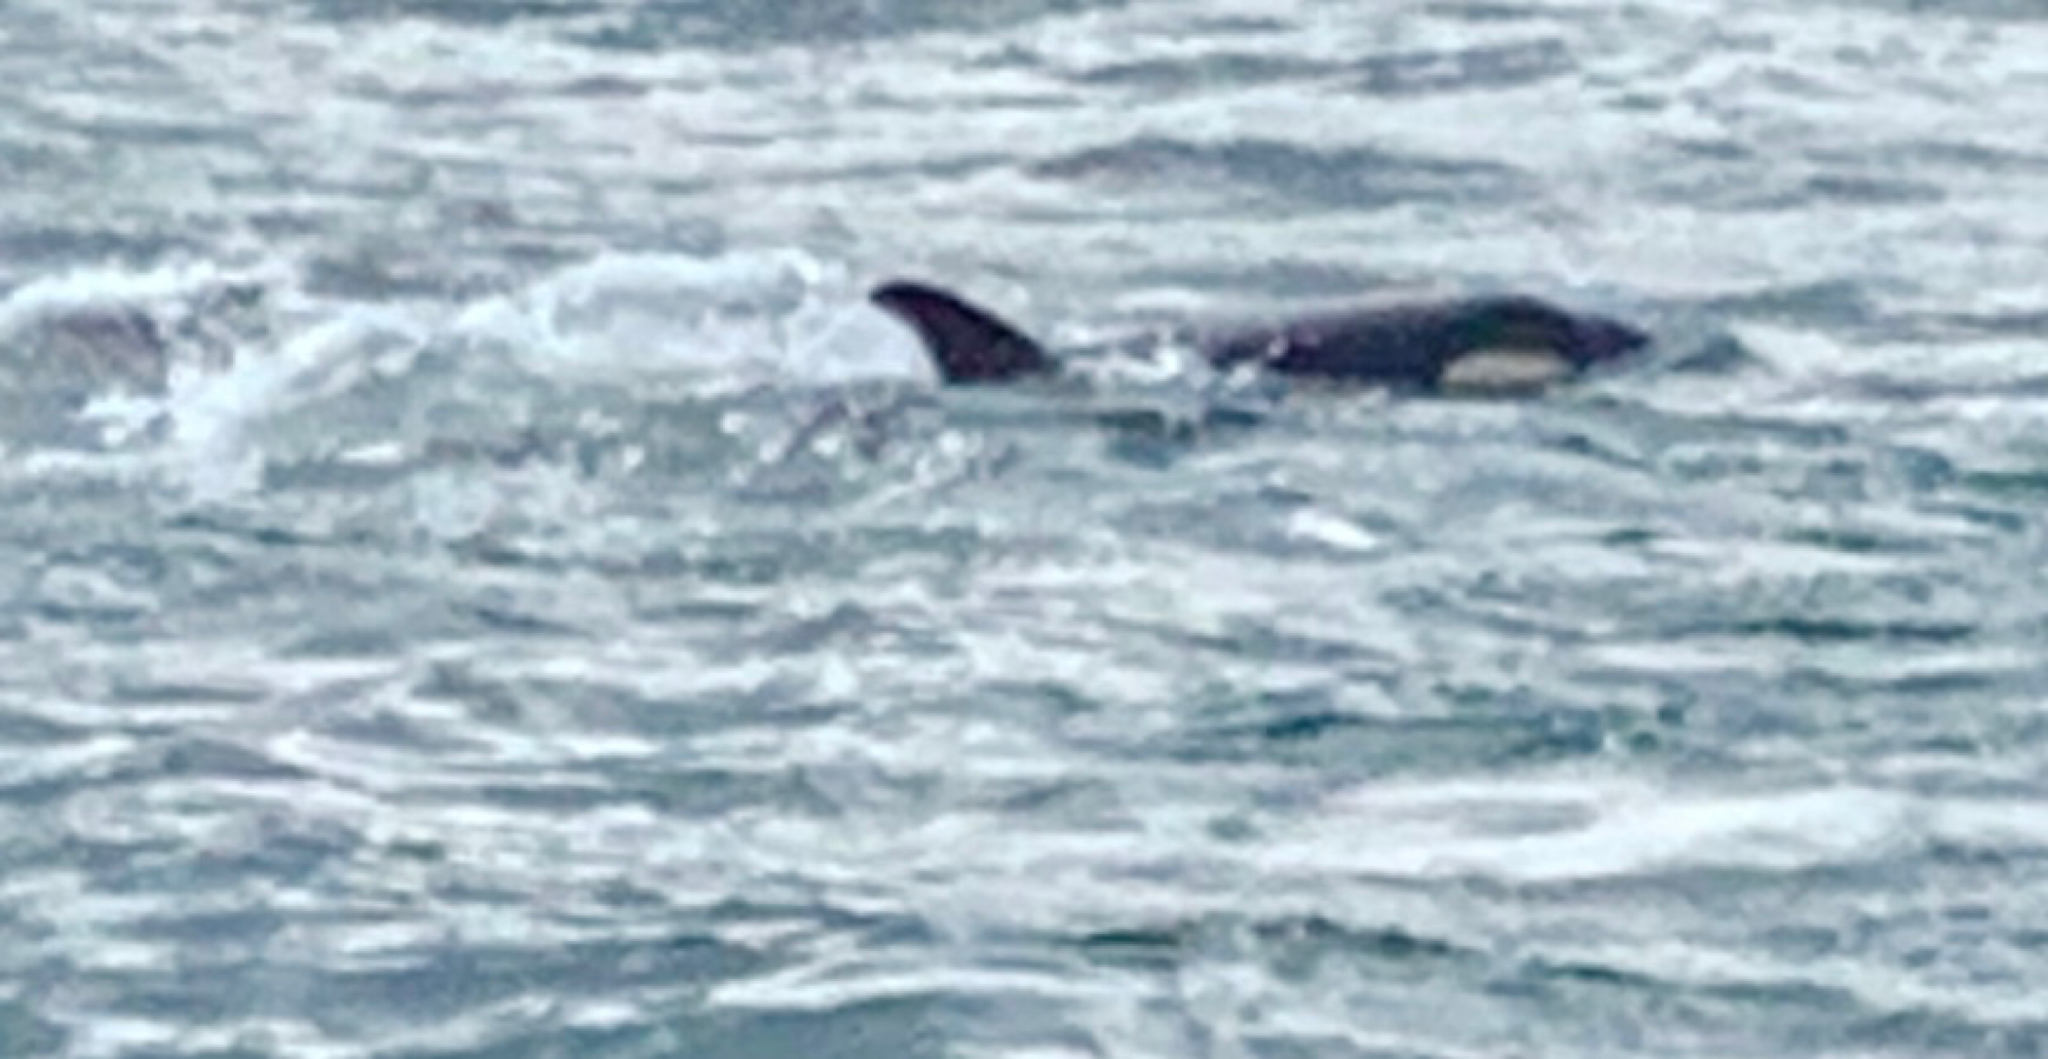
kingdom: Animalia
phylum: Chordata
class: Mammalia
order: Cetacea
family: Delphinidae
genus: Orcinus
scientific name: Orcinus orca
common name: Killer whale
